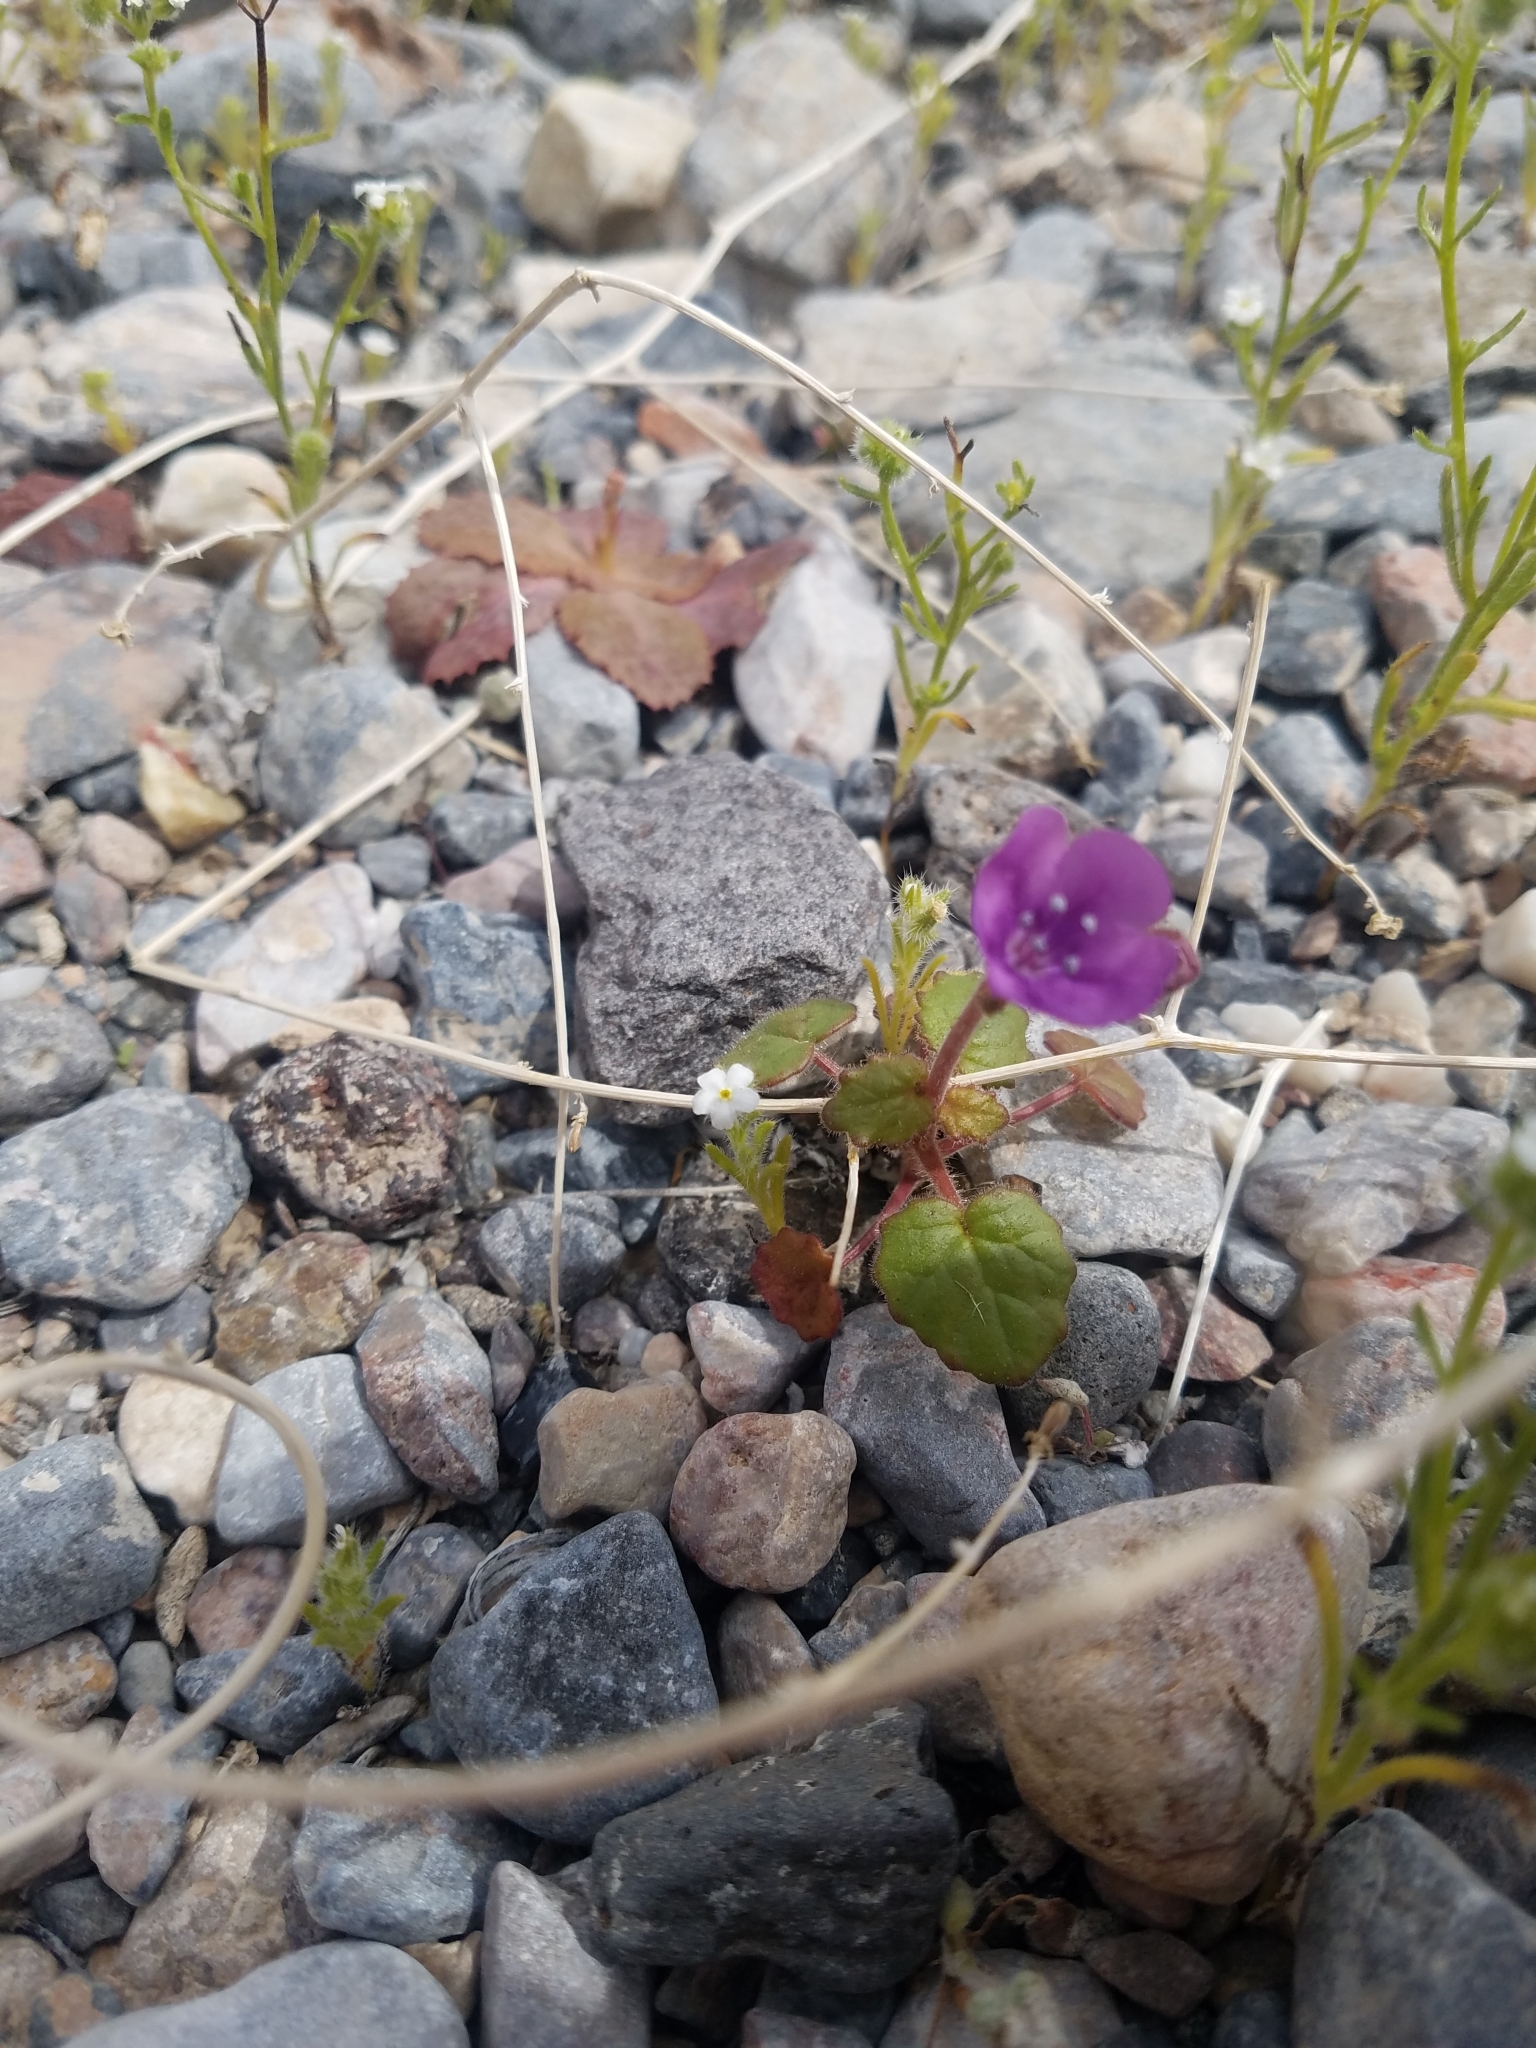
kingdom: Plantae
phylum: Tracheophyta
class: Magnoliopsida
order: Boraginales
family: Hydrophyllaceae
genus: Phacelia
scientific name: Phacelia calthifolia
